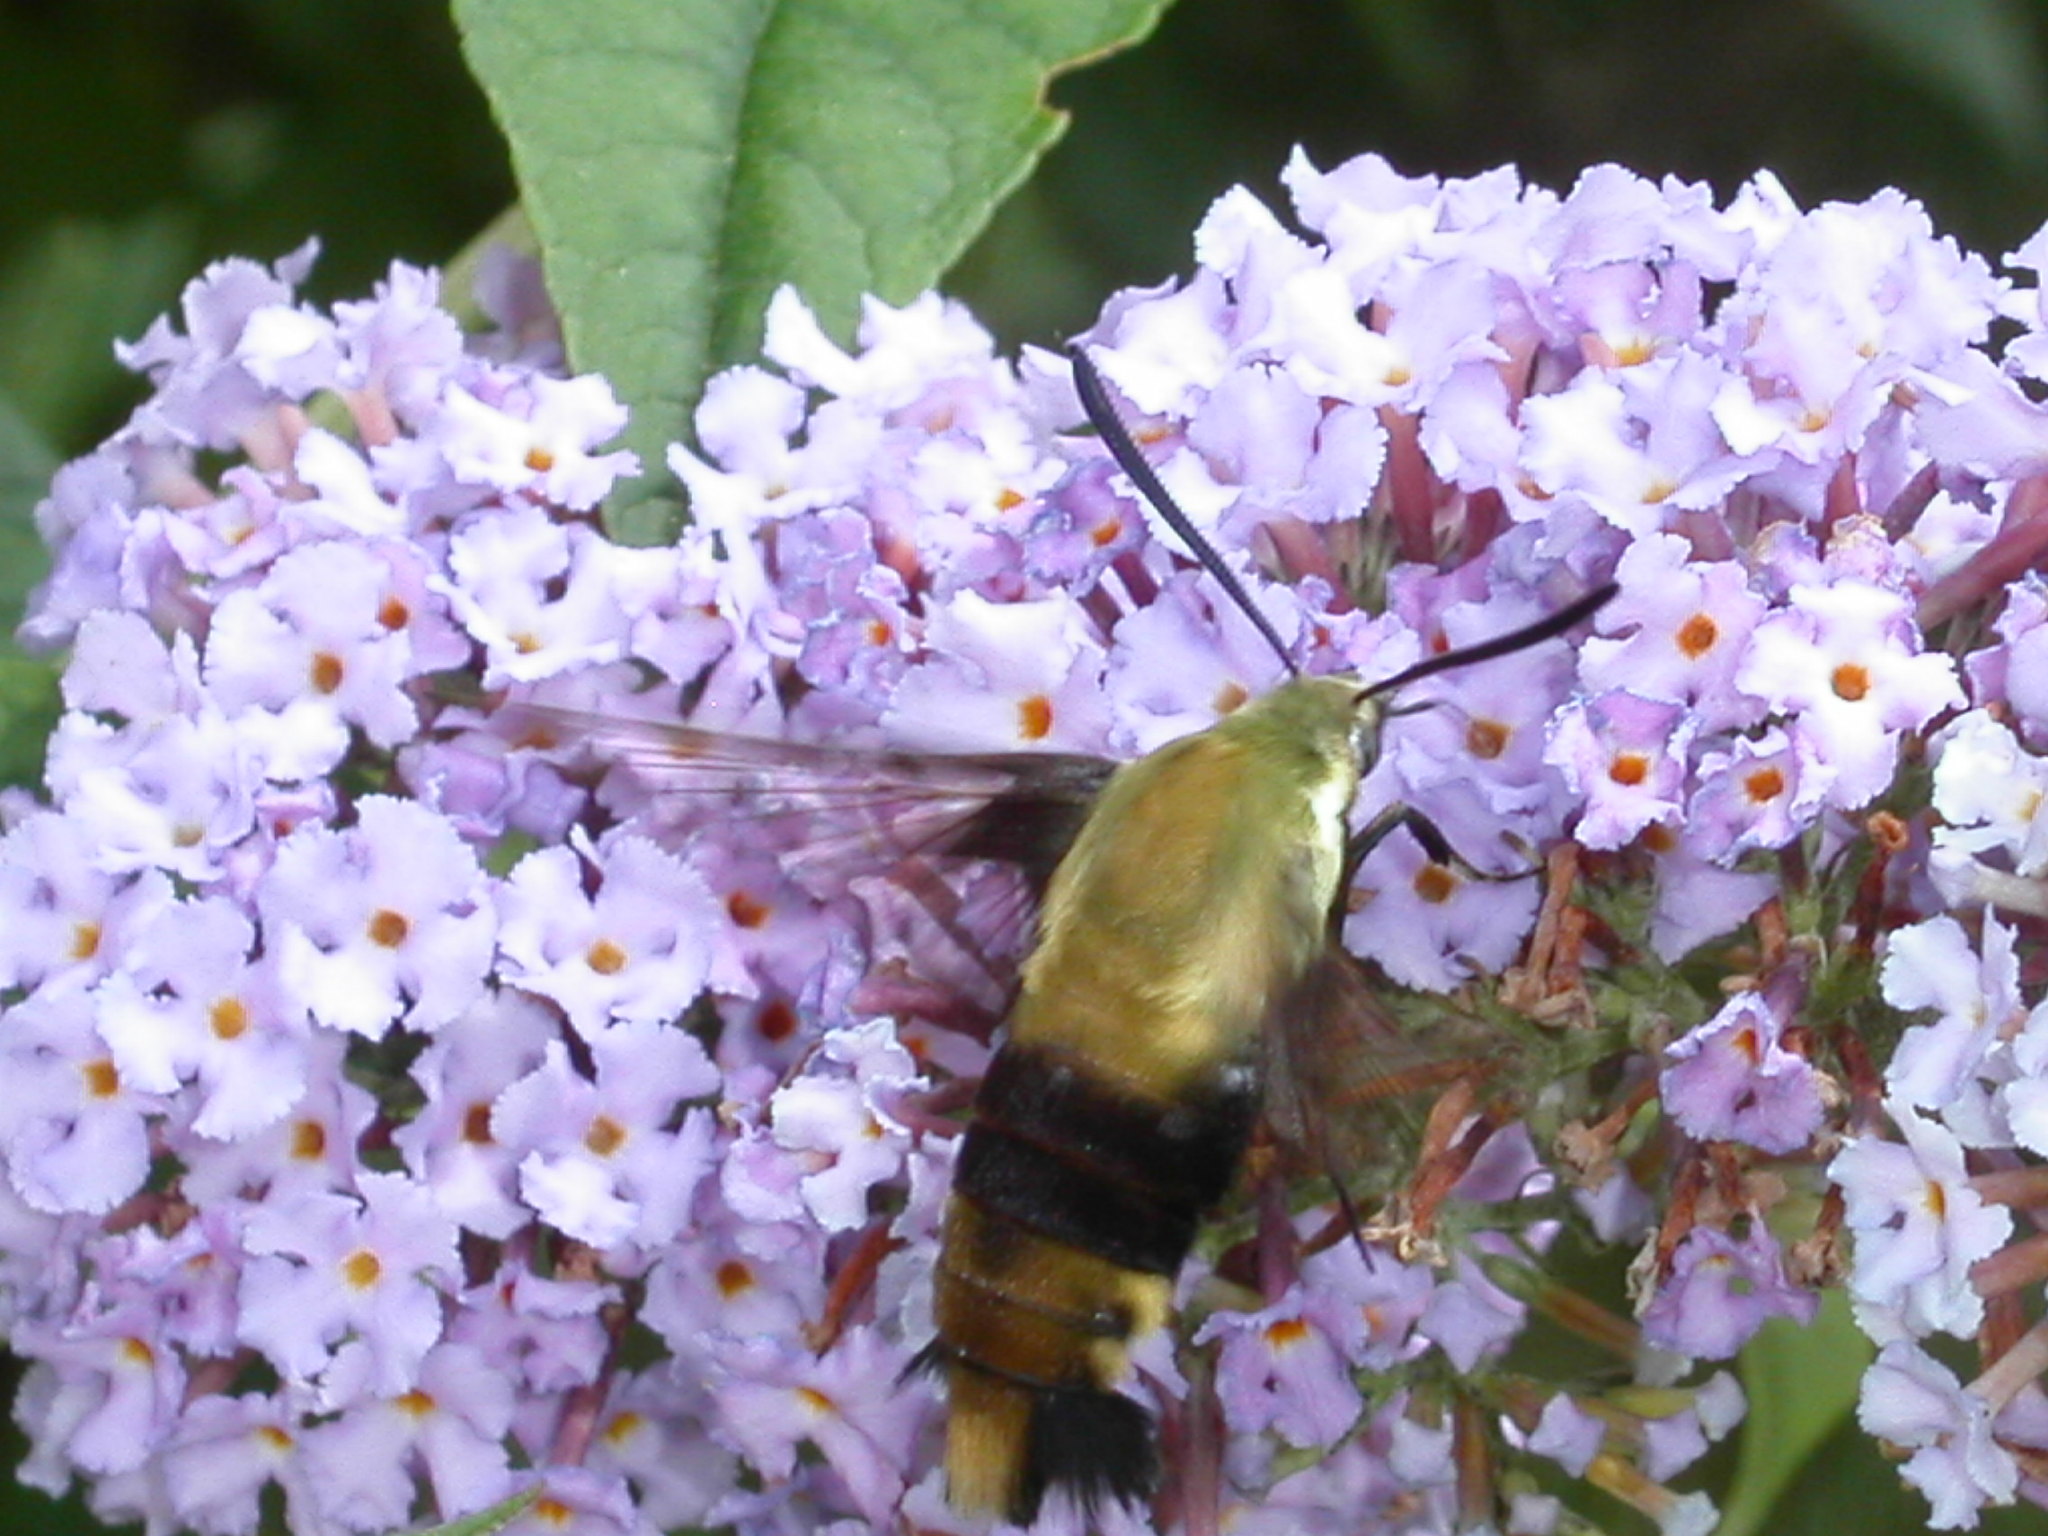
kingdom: Animalia
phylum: Arthropoda
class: Insecta
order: Lepidoptera
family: Sphingidae
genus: Hemaris
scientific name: Hemaris diffinis
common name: Bumblebee moth
